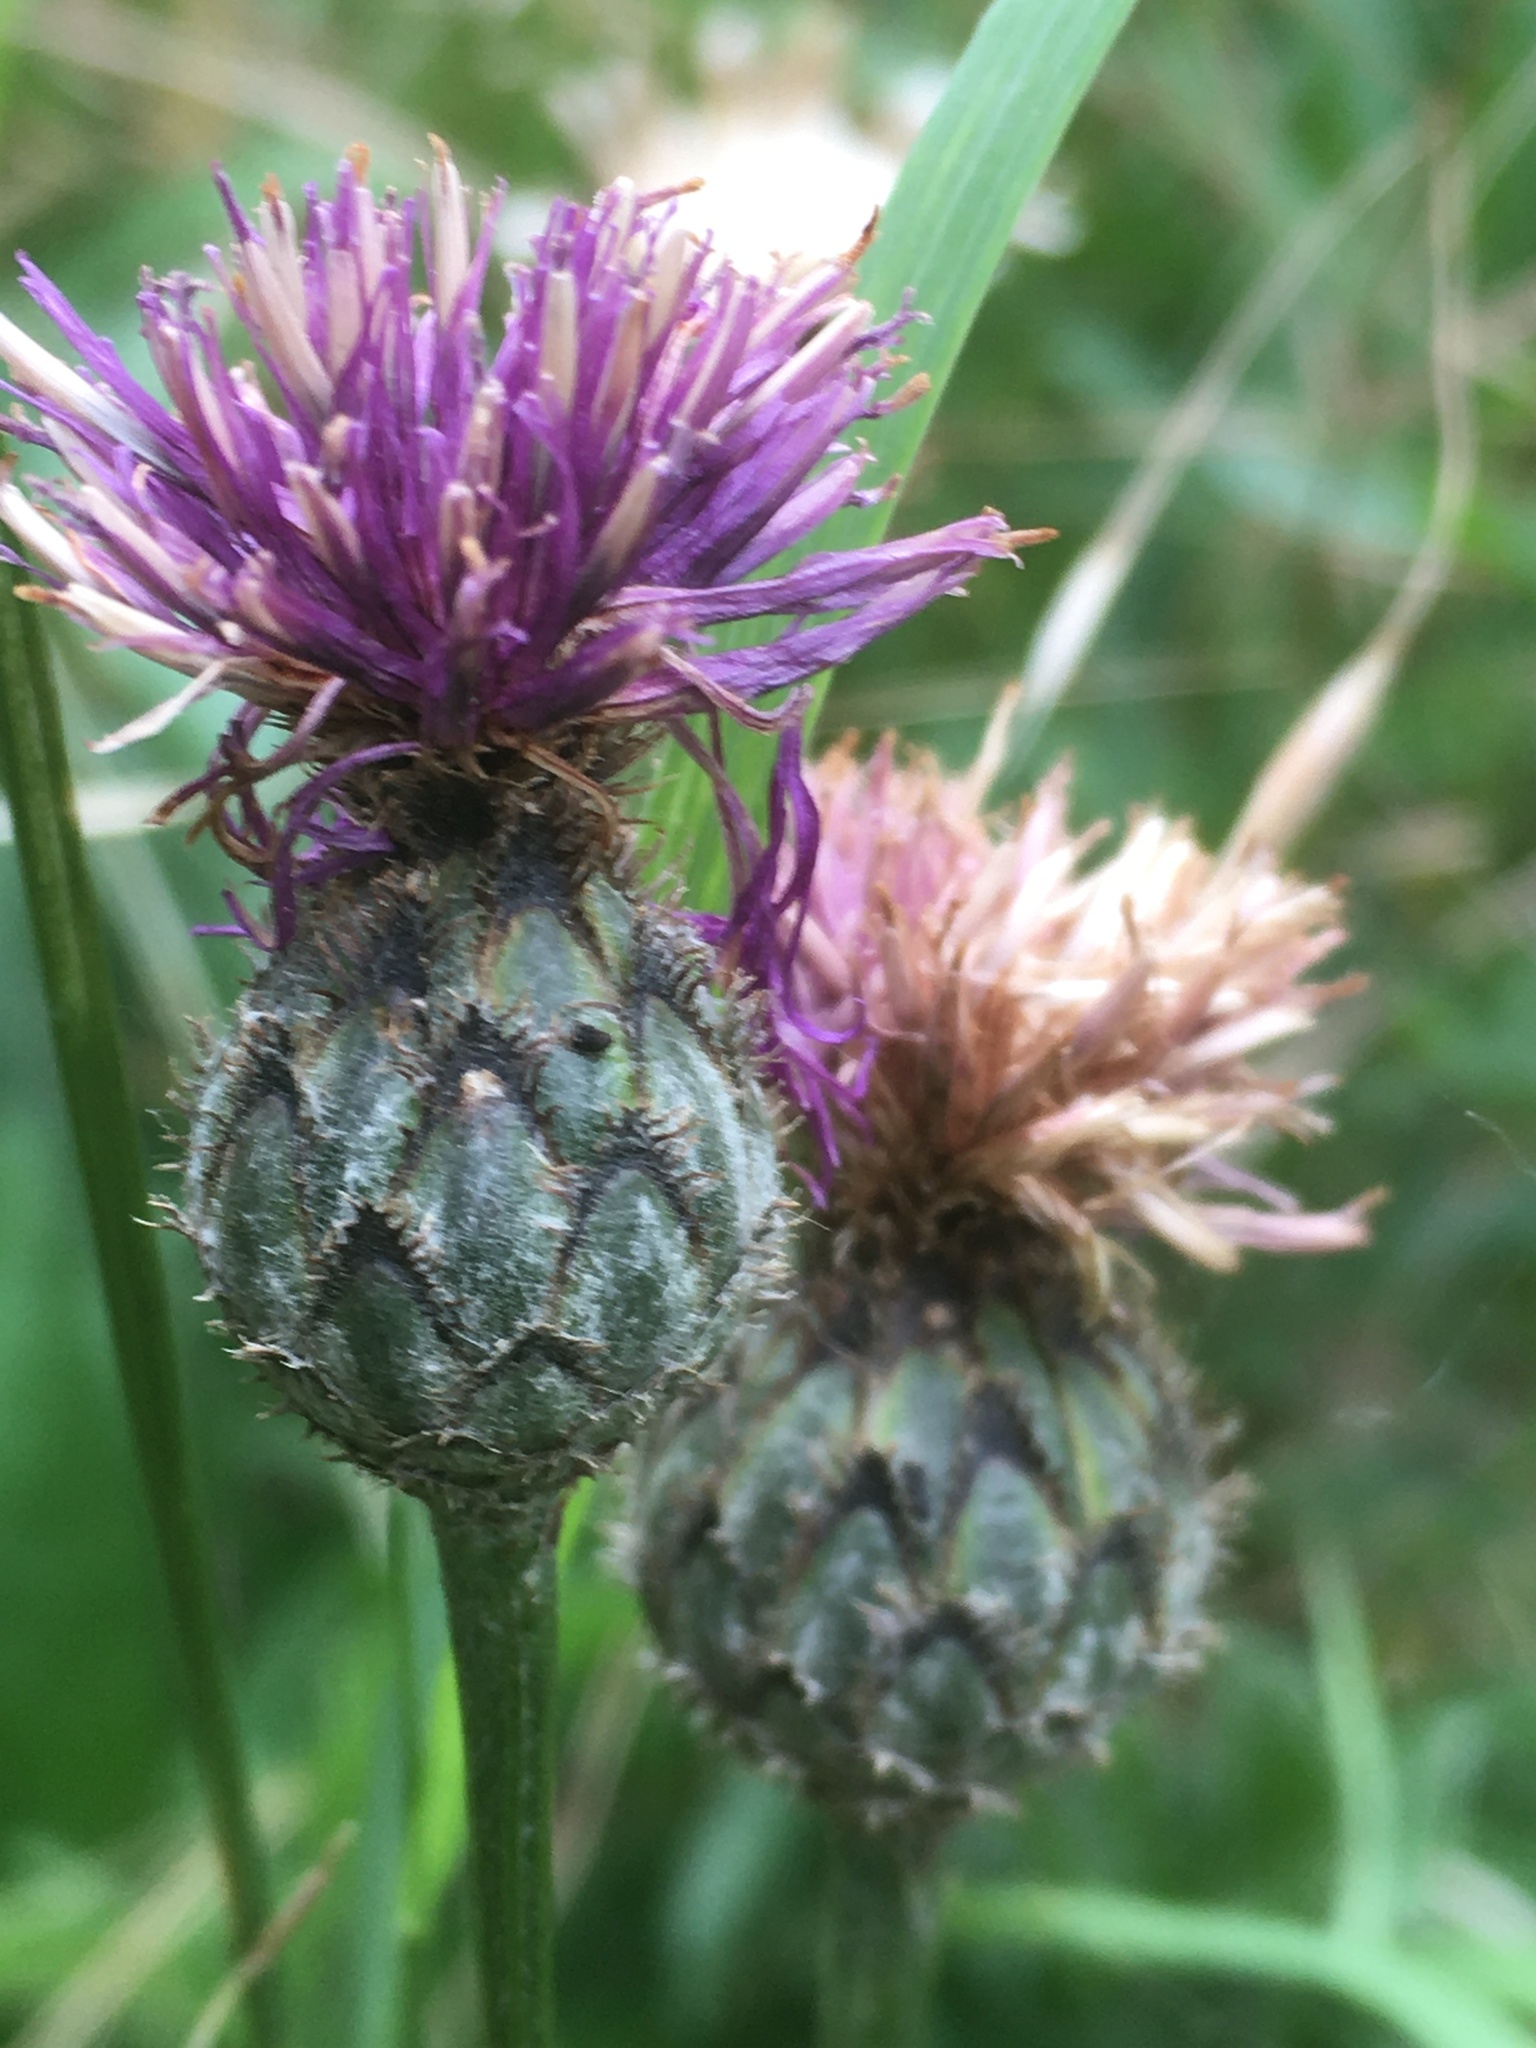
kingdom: Plantae
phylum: Tracheophyta
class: Magnoliopsida
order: Asterales
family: Asteraceae
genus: Centaurea
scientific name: Centaurea scabiosa
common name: Greater knapweed
